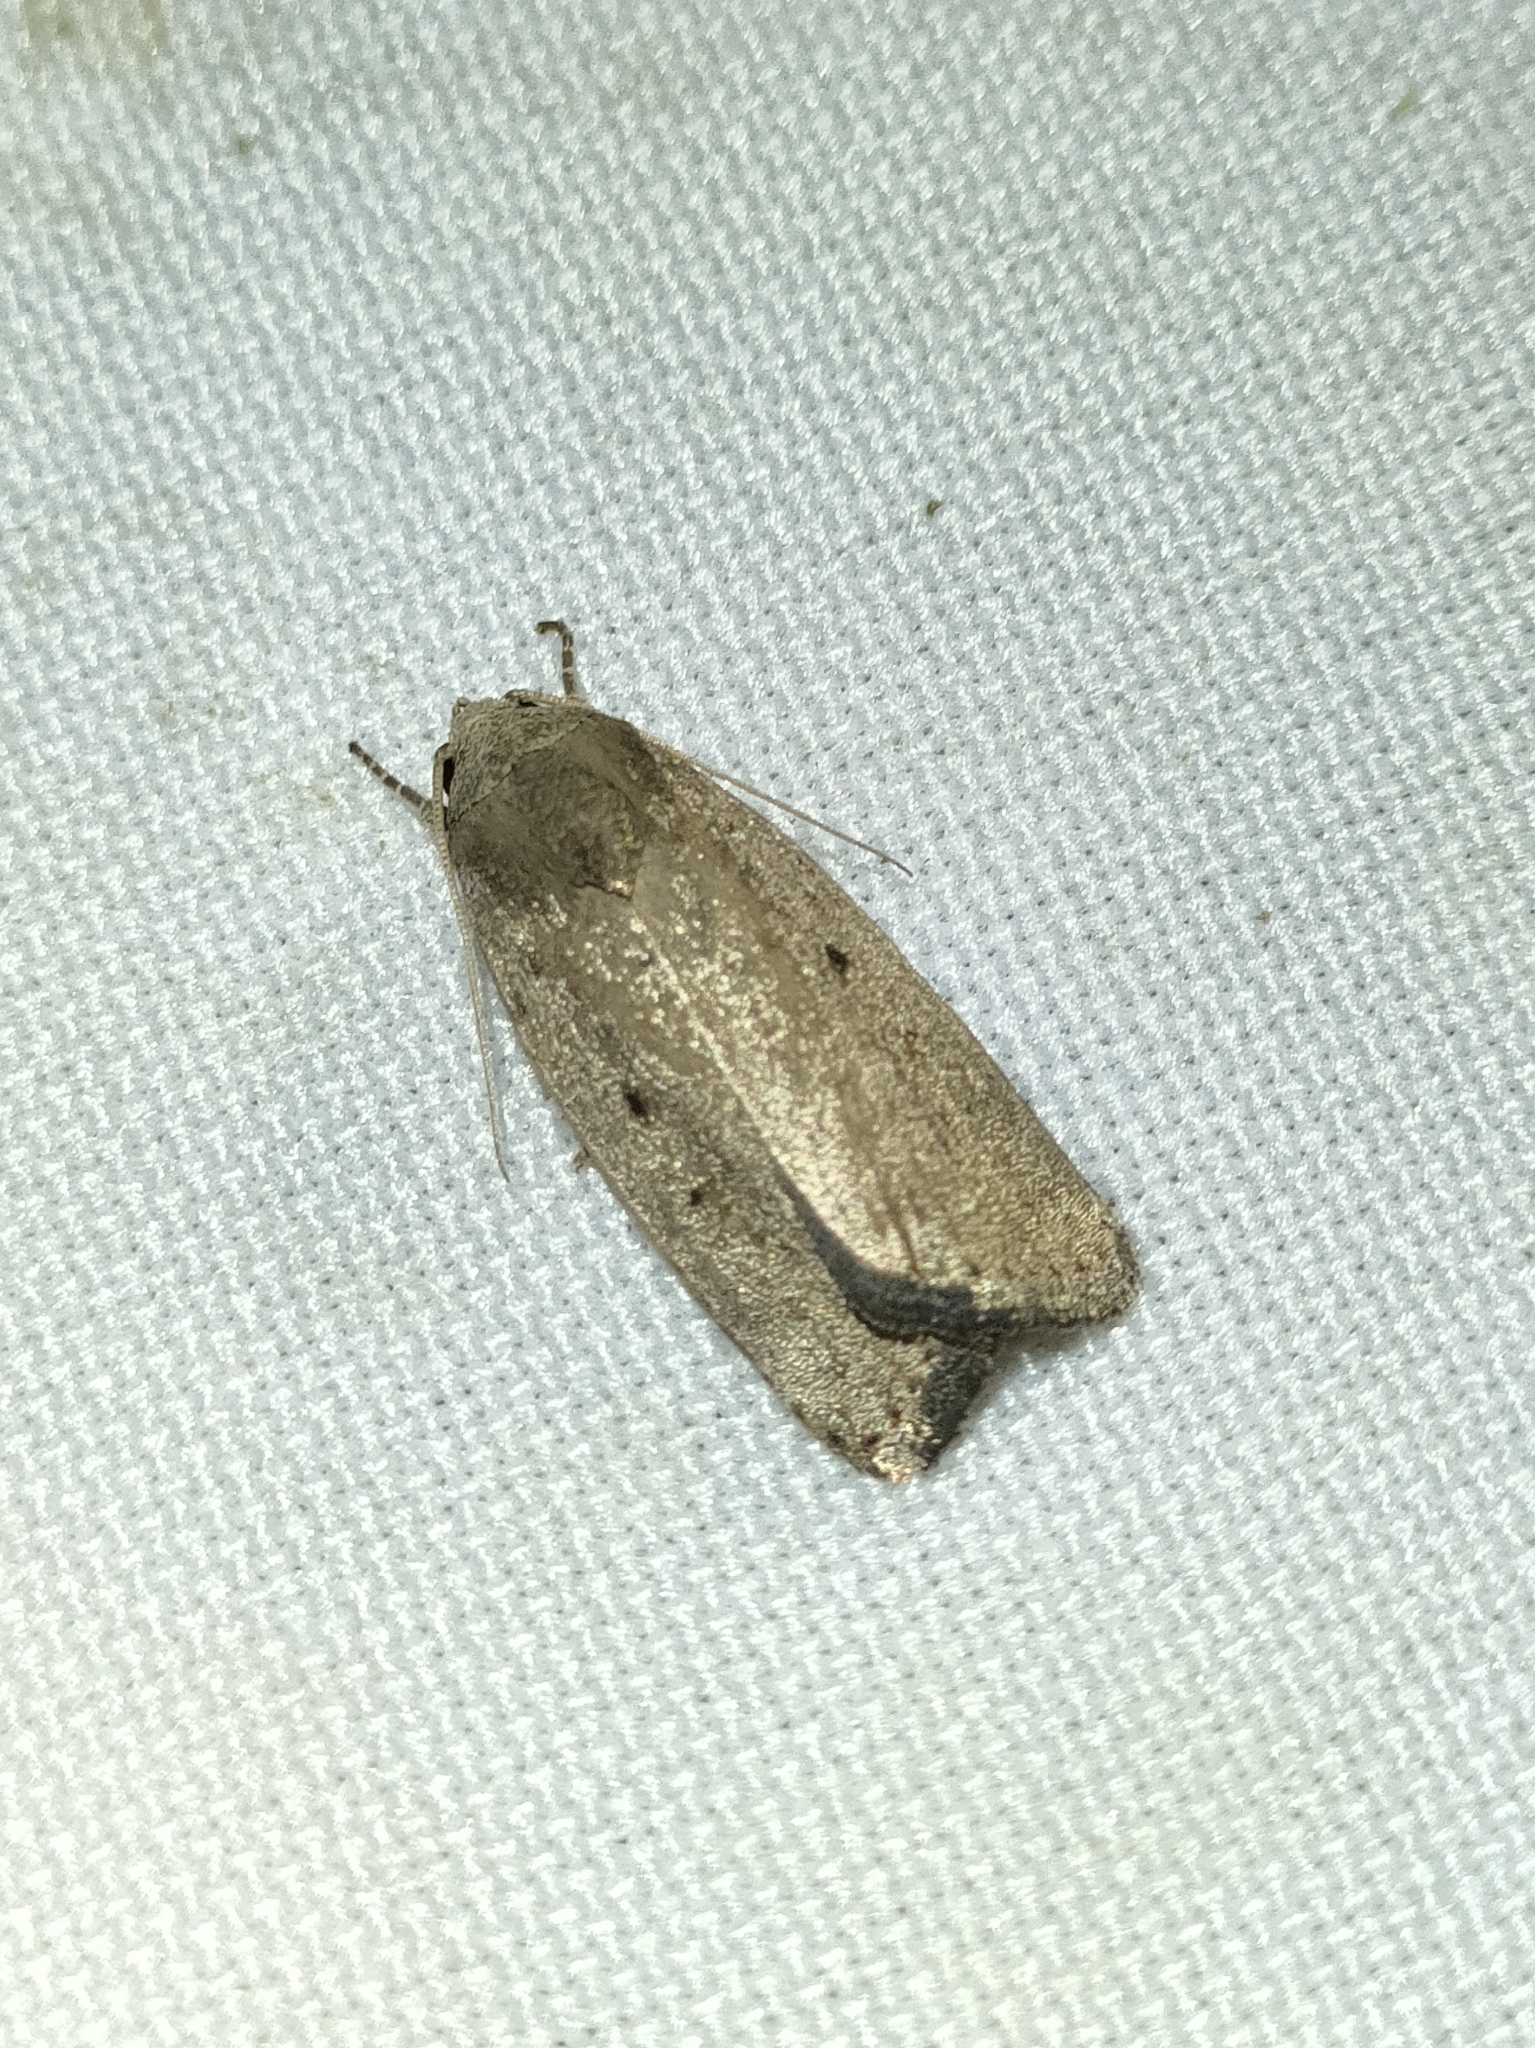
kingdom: Animalia
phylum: Arthropoda
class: Insecta
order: Lepidoptera
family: Noctuidae
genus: Athetis
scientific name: Athetis hospes
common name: Porter's rustic
